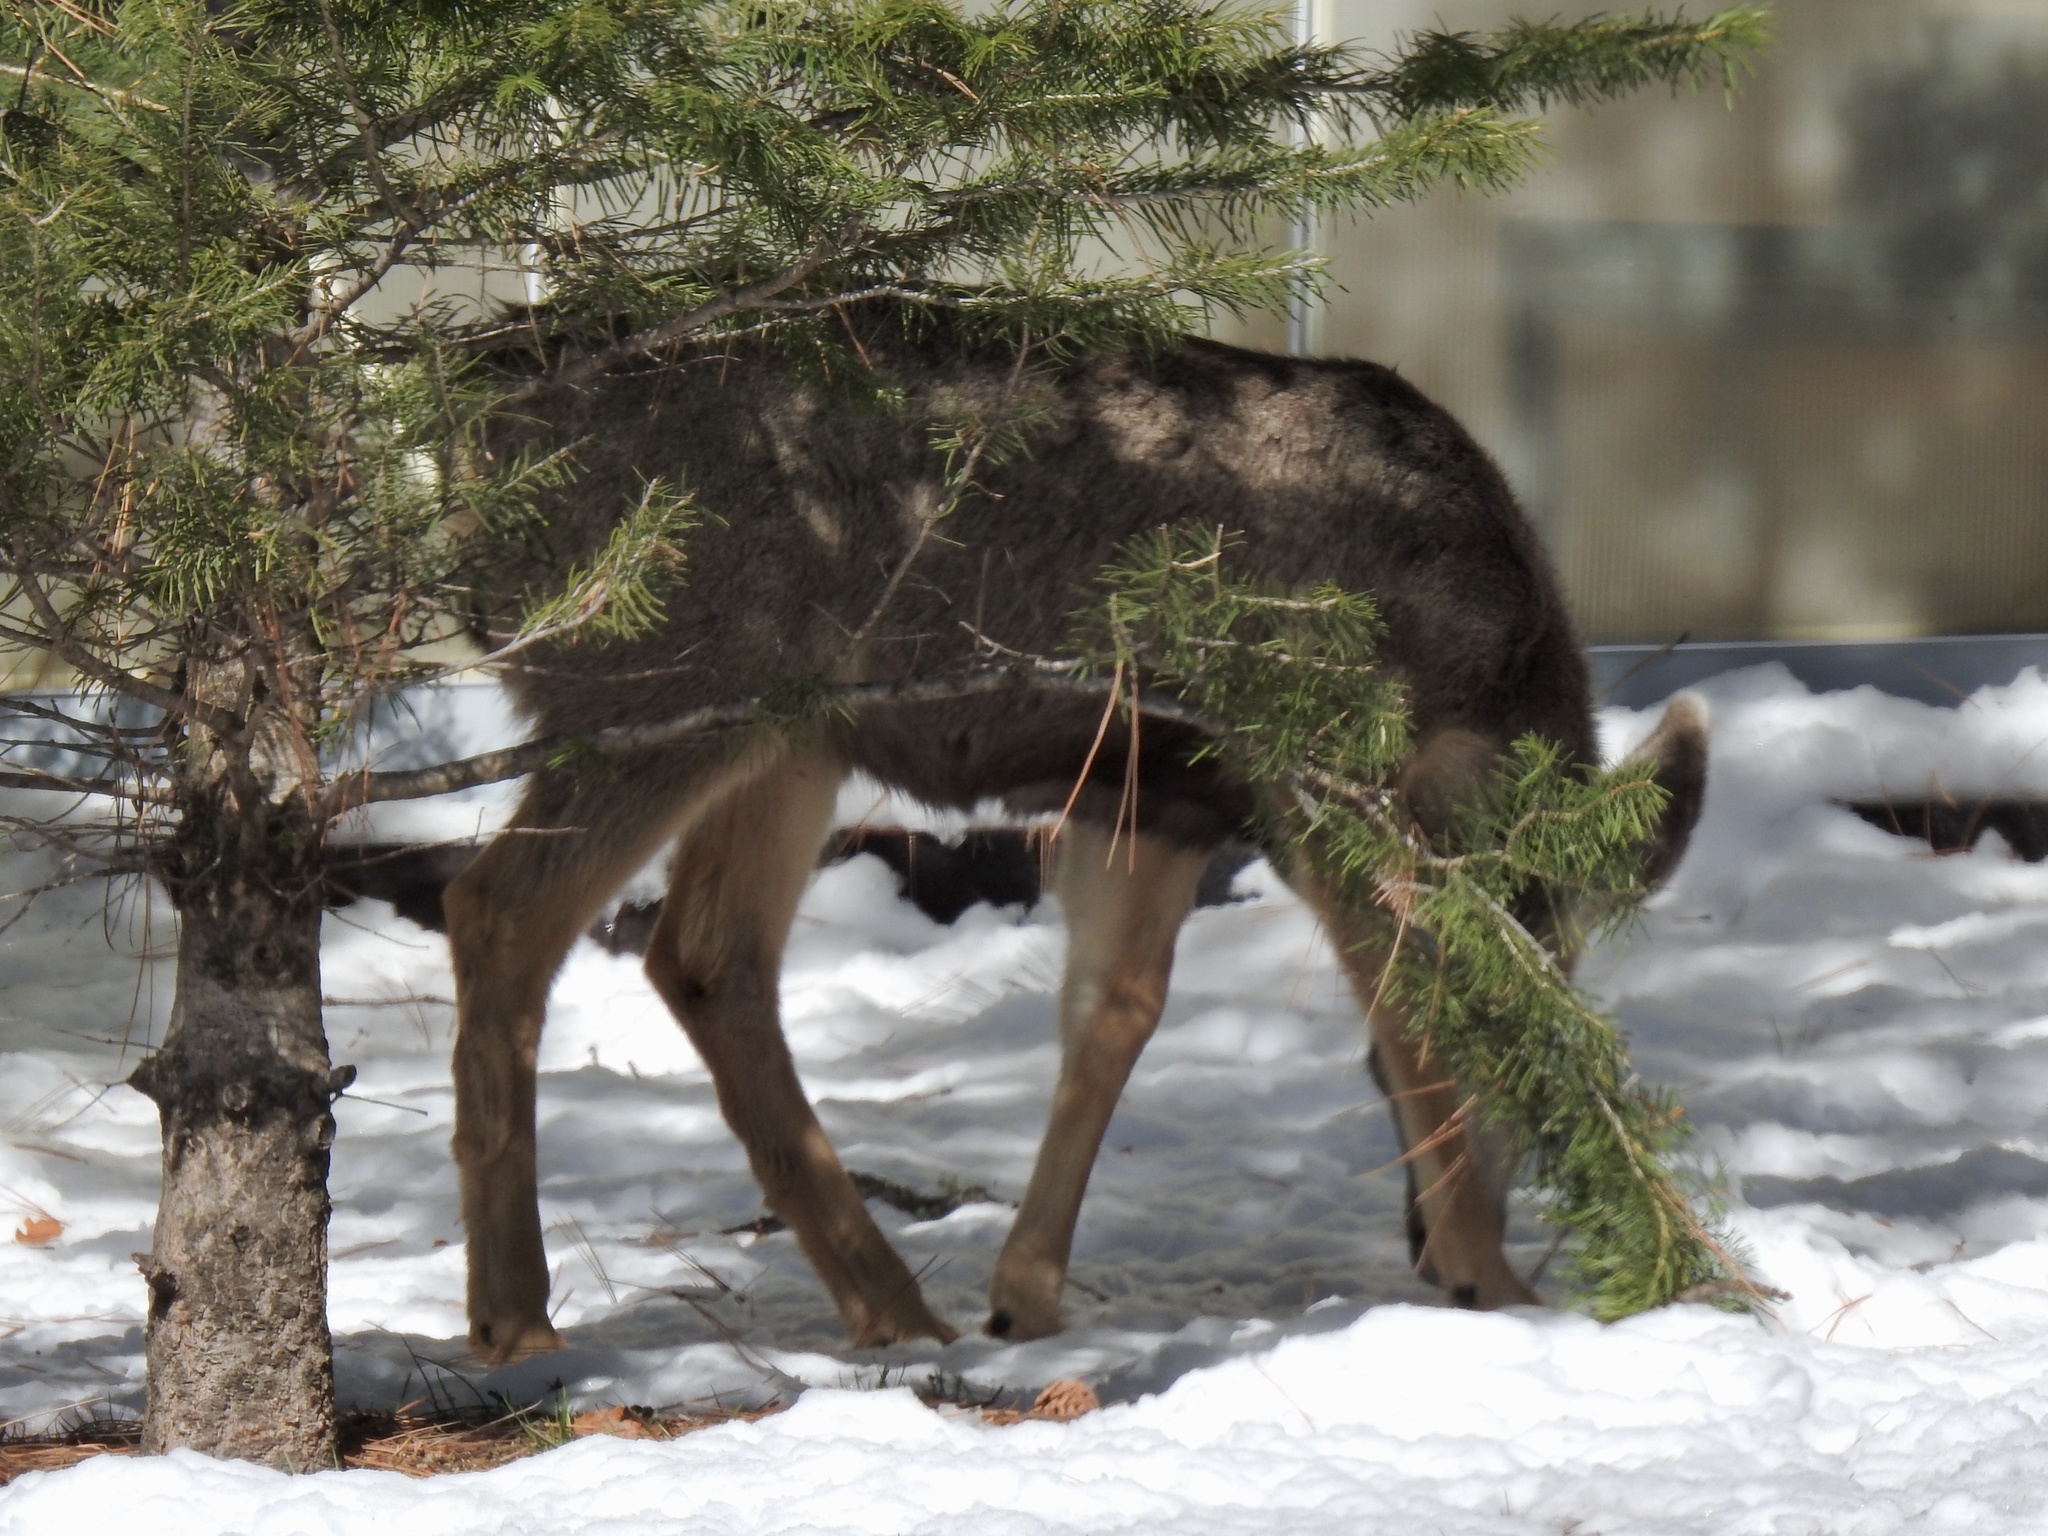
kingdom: Animalia
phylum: Chordata
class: Mammalia
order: Artiodactyla
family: Cervidae
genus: Odocoileus
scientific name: Odocoileus hemionus
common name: Mule deer
